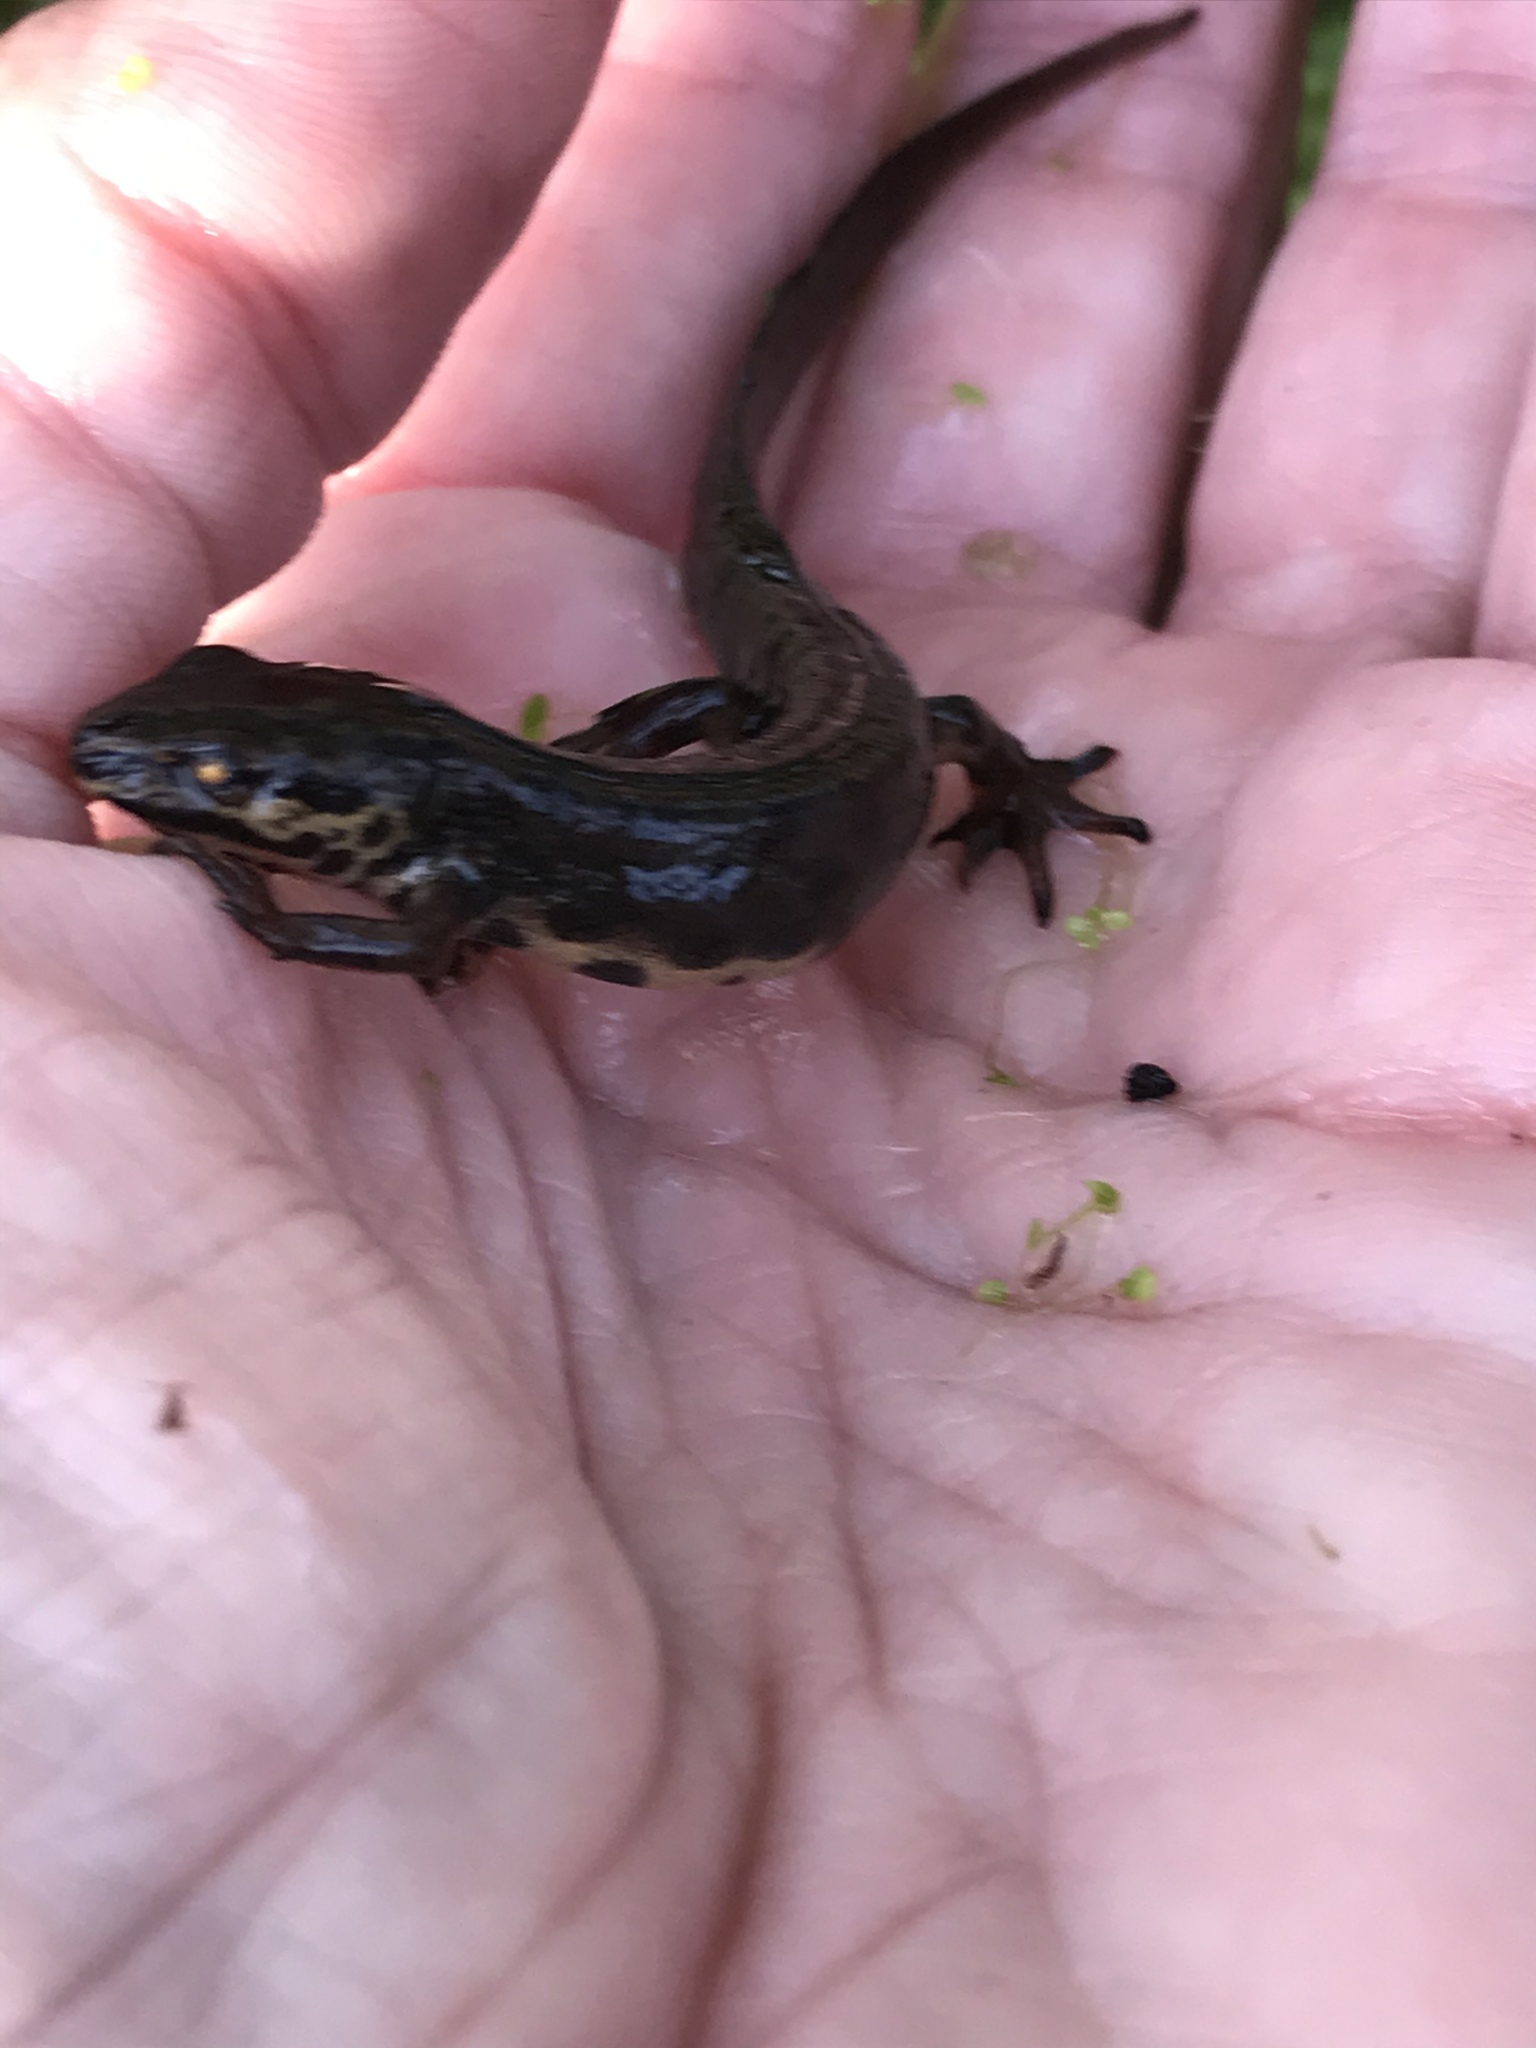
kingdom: Animalia
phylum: Chordata
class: Amphibia
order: Caudata
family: Salamandridae
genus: Lissotriton
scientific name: Lissotriton vulgaris
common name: Smooth newt
